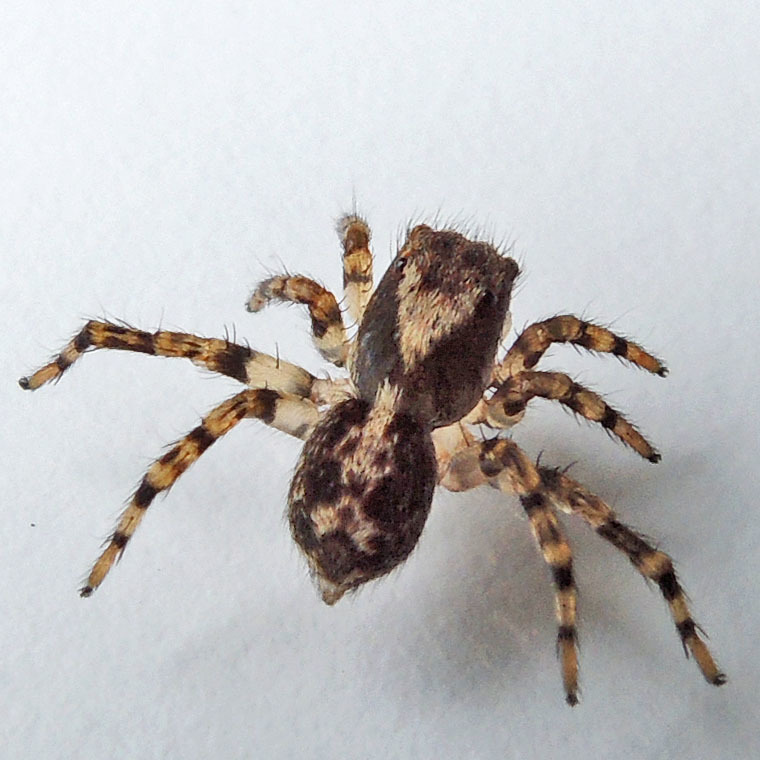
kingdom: Animalia
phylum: Arthropoda
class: Arachnida
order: Araneae
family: Salticidae
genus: Naphrys
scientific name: Naphrys pulex
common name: Flea jumping spider
